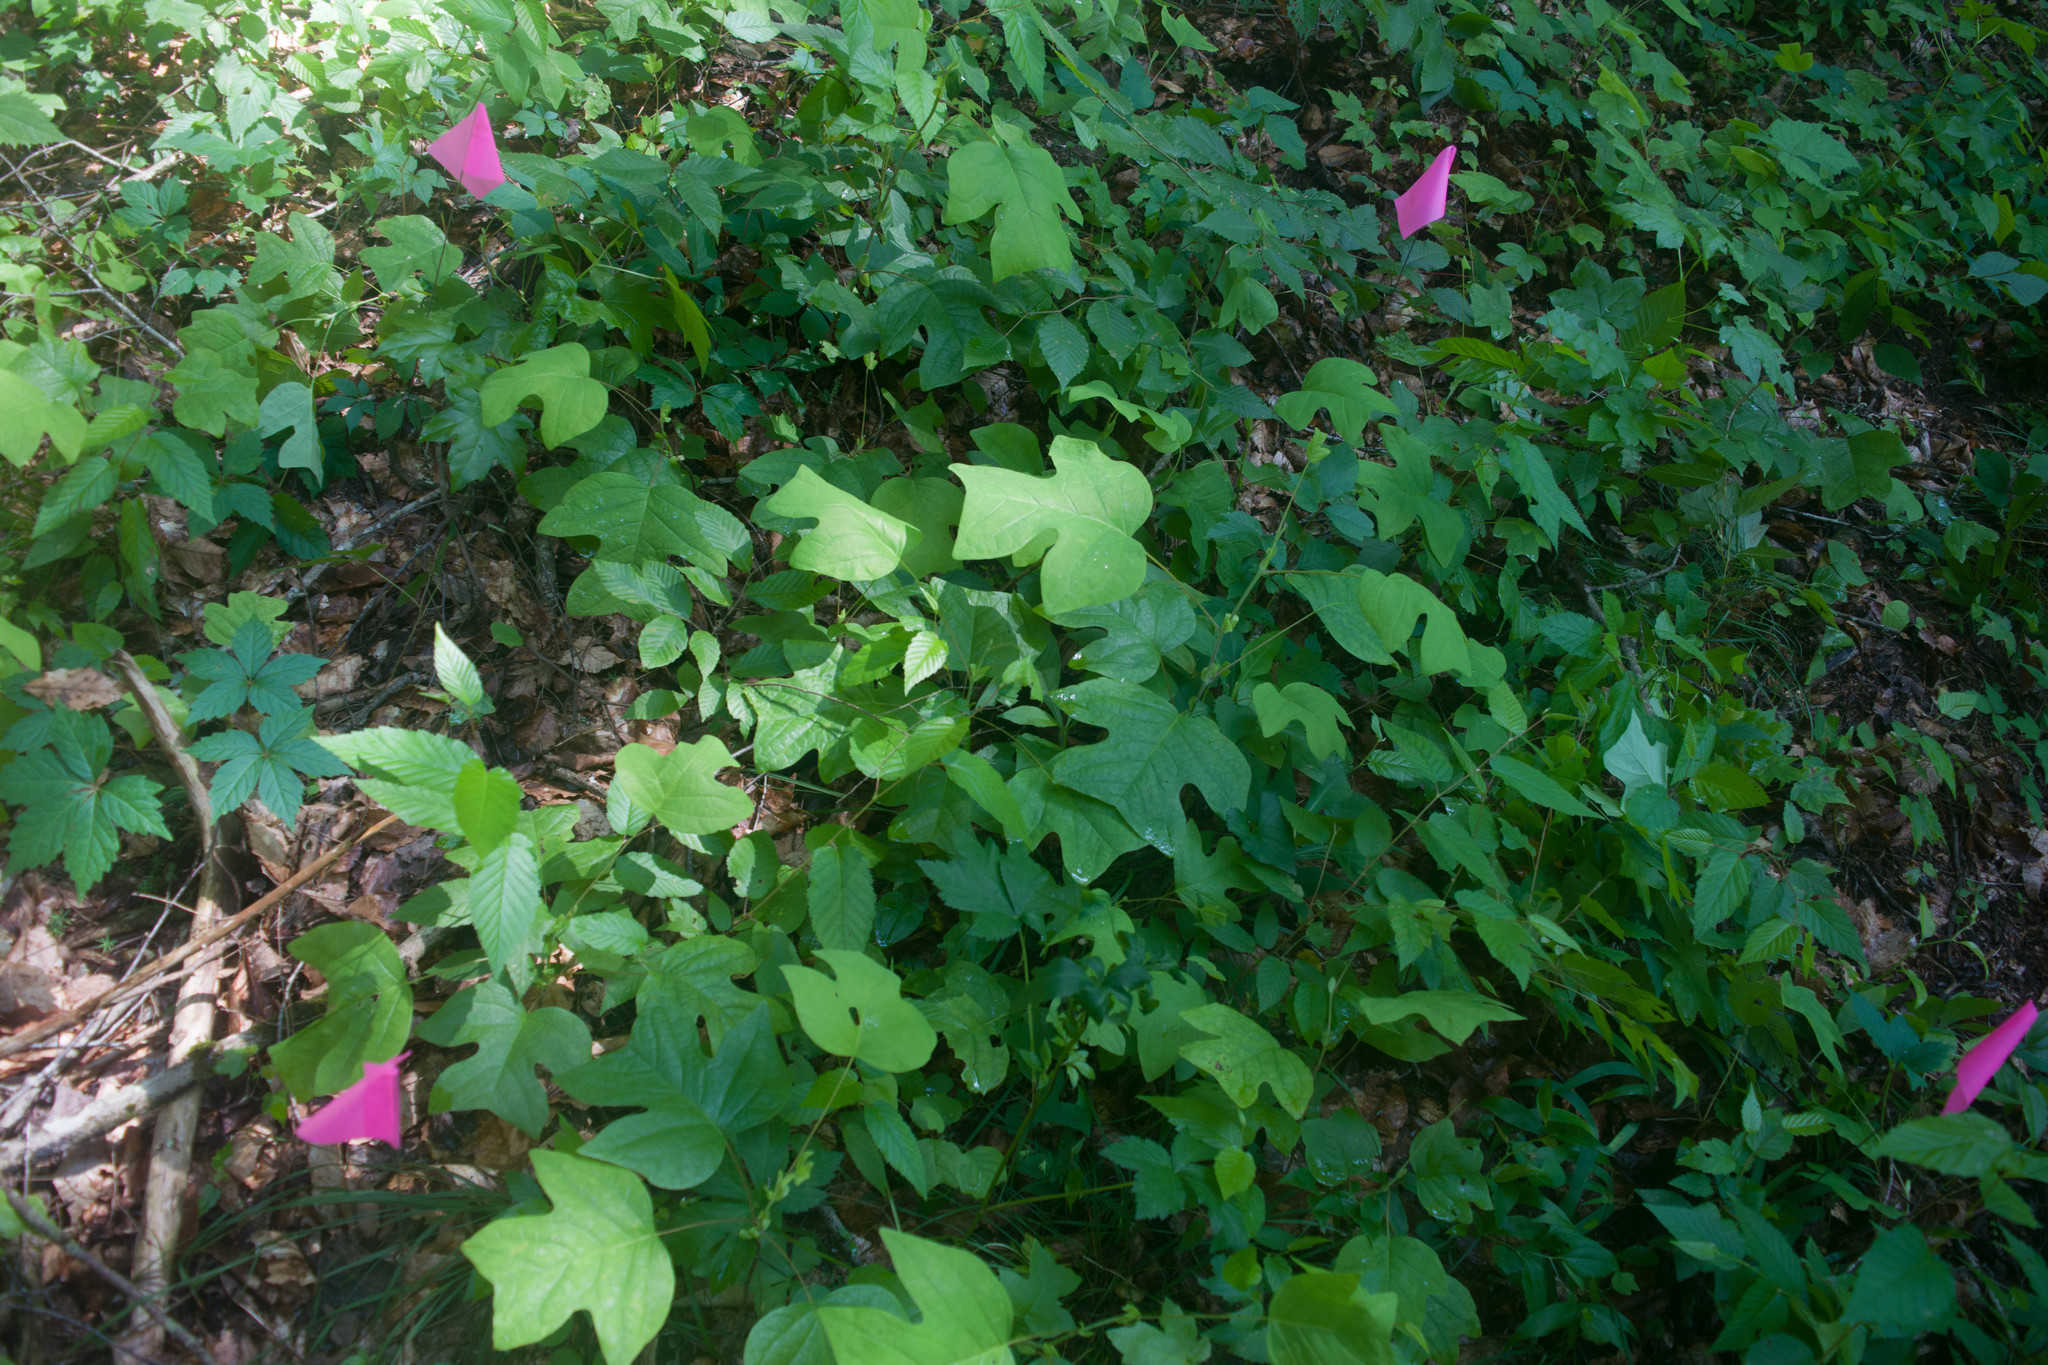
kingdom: Plantae
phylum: Tracheophyta
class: Magnoliopsida
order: Magnoliales
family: Magnoliaceae
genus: Liriodendron
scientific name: Liriodendron tulipifera
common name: Tulip tree
